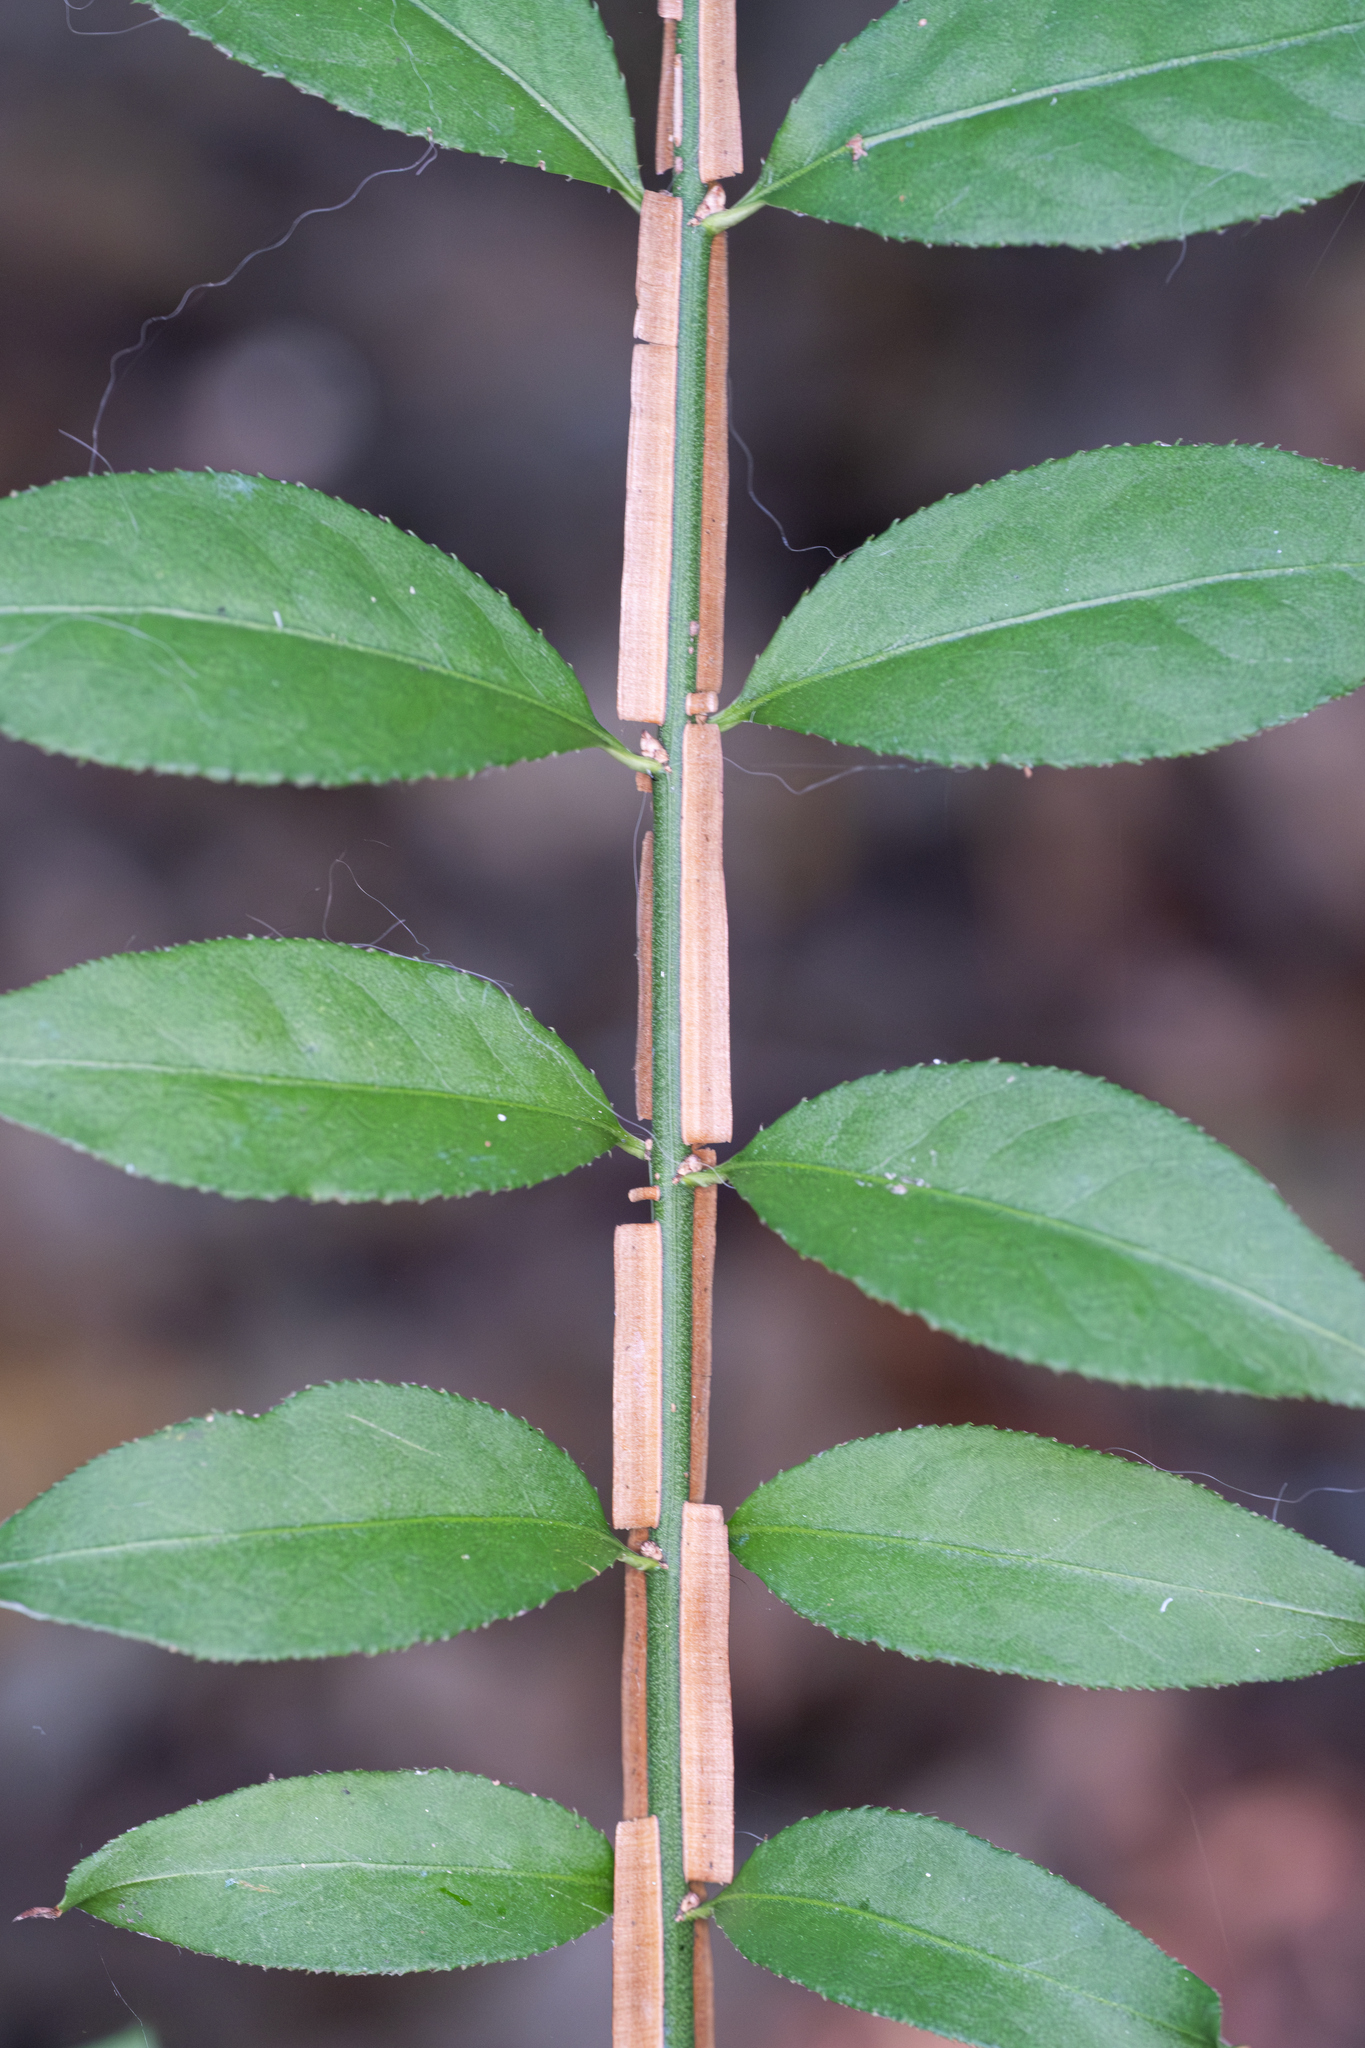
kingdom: Plantae
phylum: Tracheophyta
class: Magnoliopsida
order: Celastrales
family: Celastraceae
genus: Euonymus
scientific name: Euonymus alatus
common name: Winged euonymus
